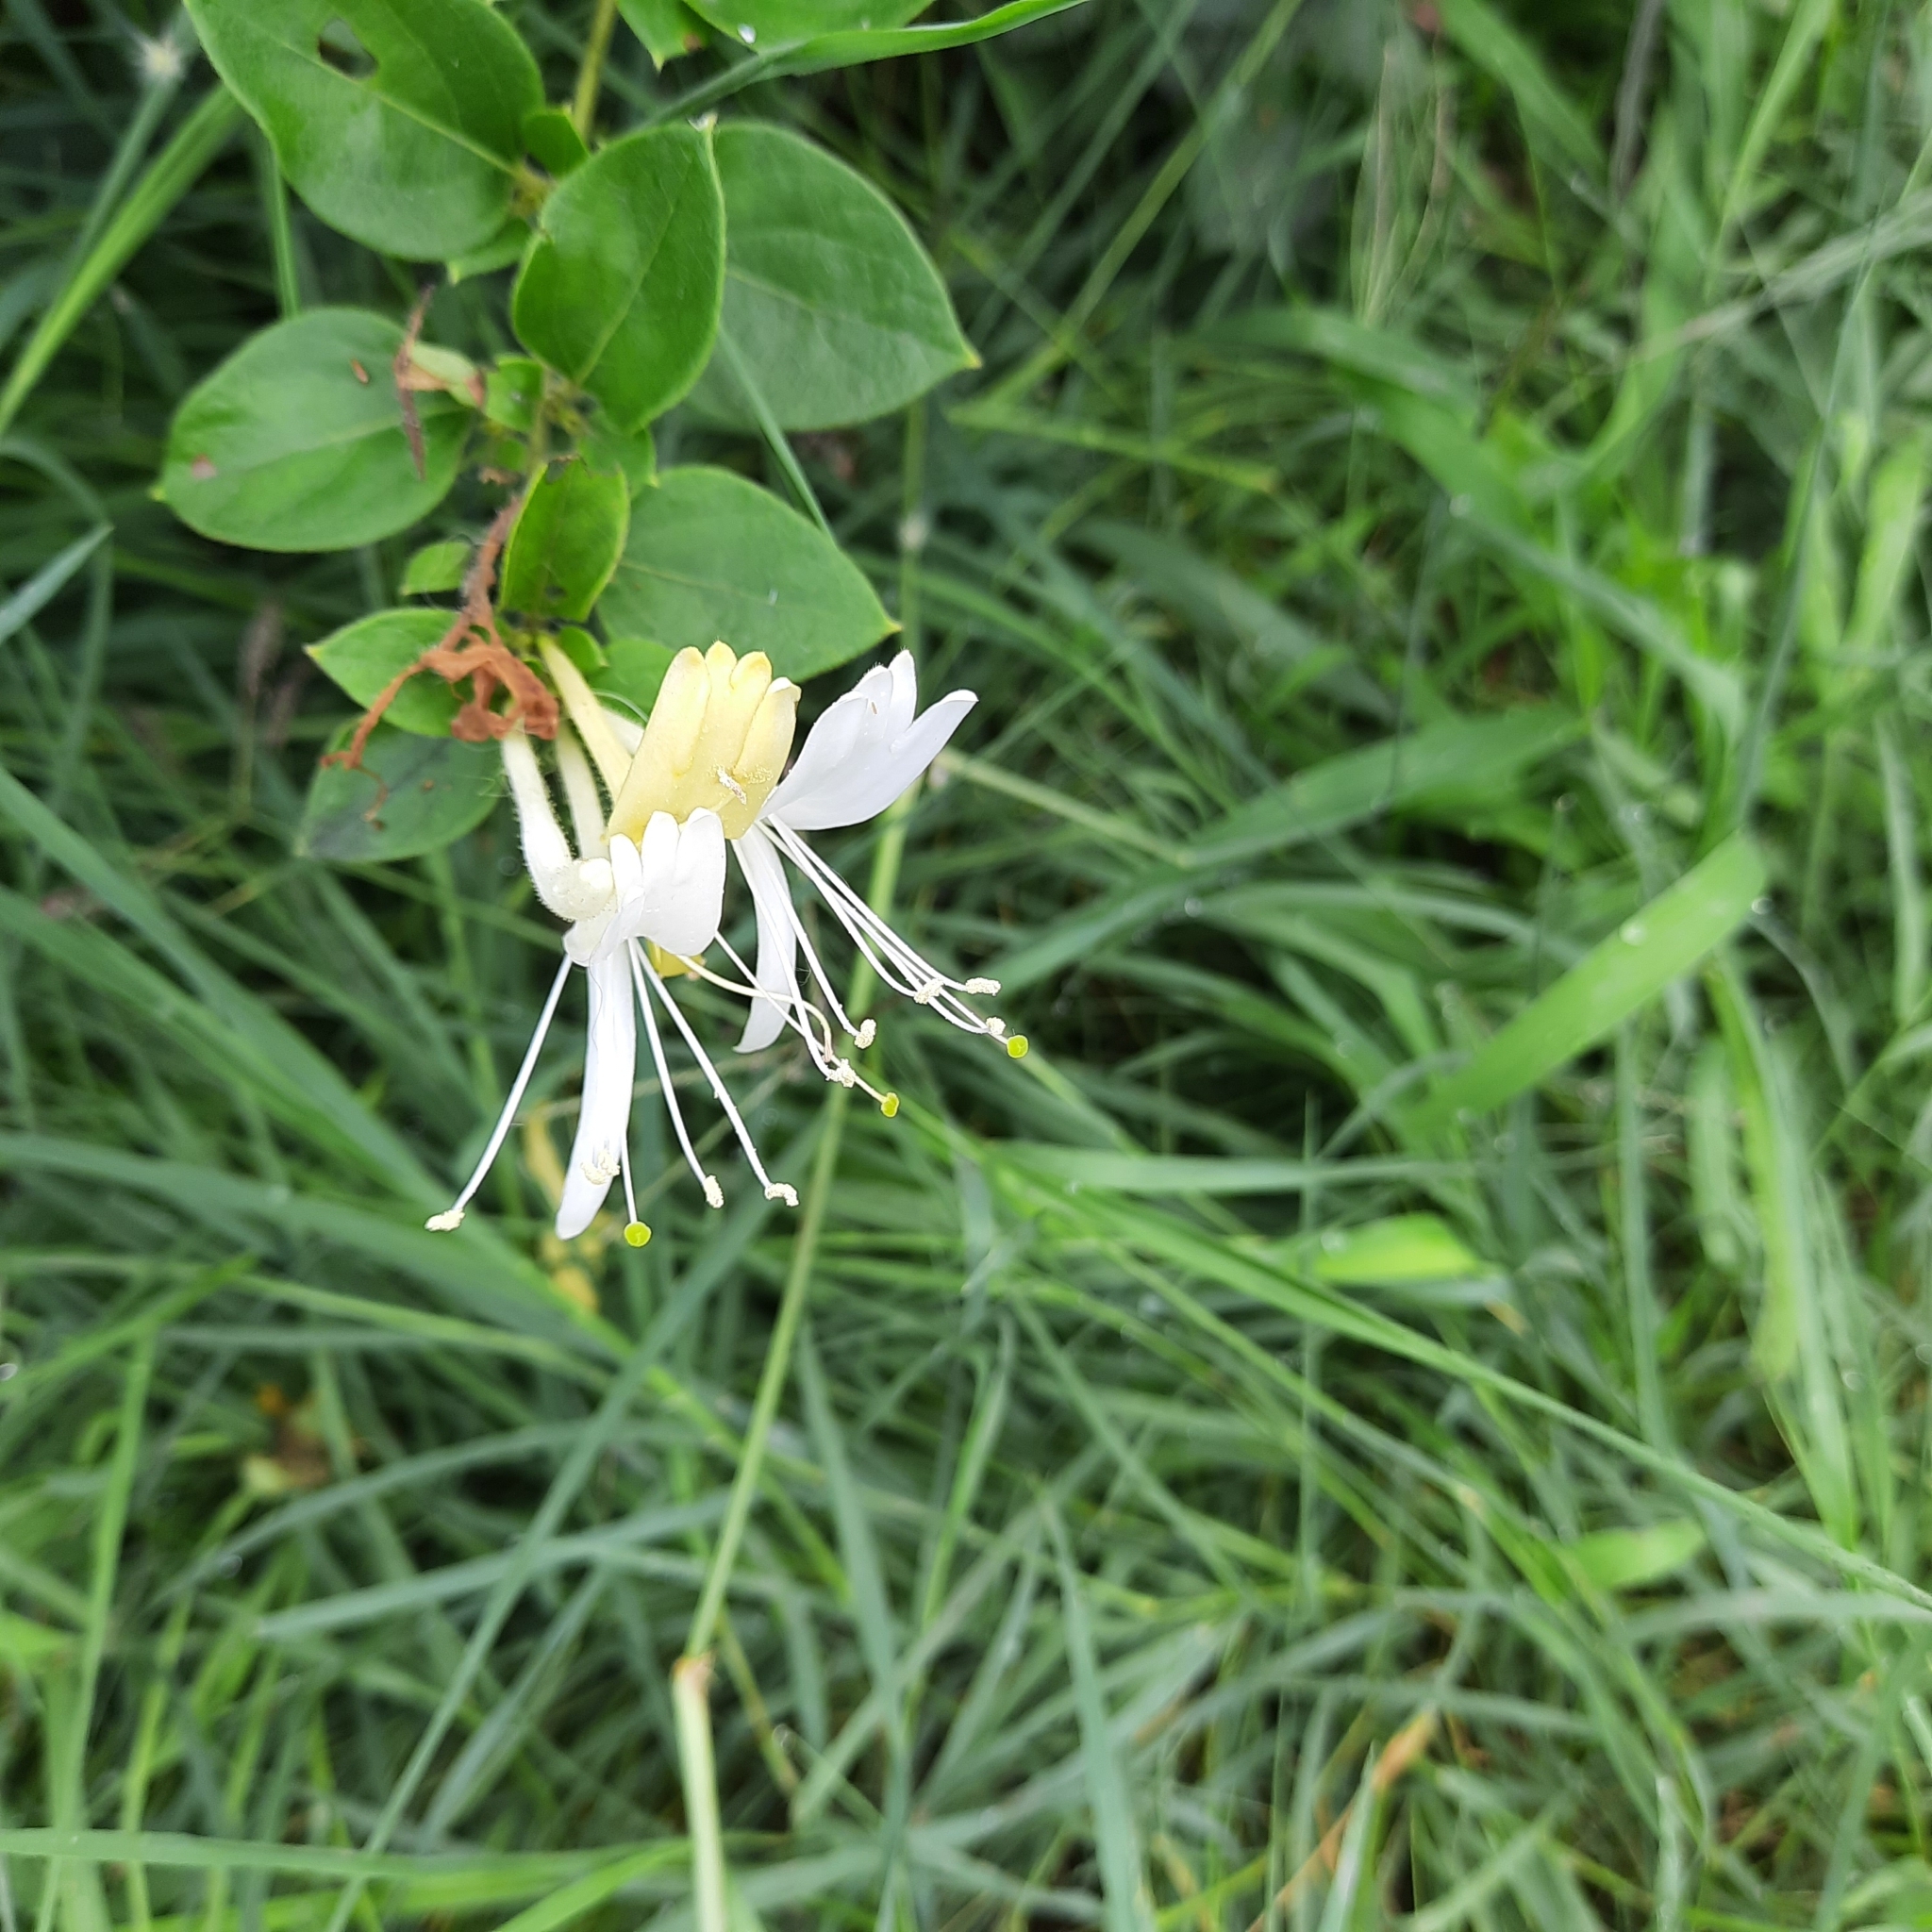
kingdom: Plantae
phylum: Tracheophyta
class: Magnoliopsida
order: Dipsacales
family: Caprifoliaceae
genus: Lonicera
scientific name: Lonicera japonica
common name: Japanese honeysuckle
